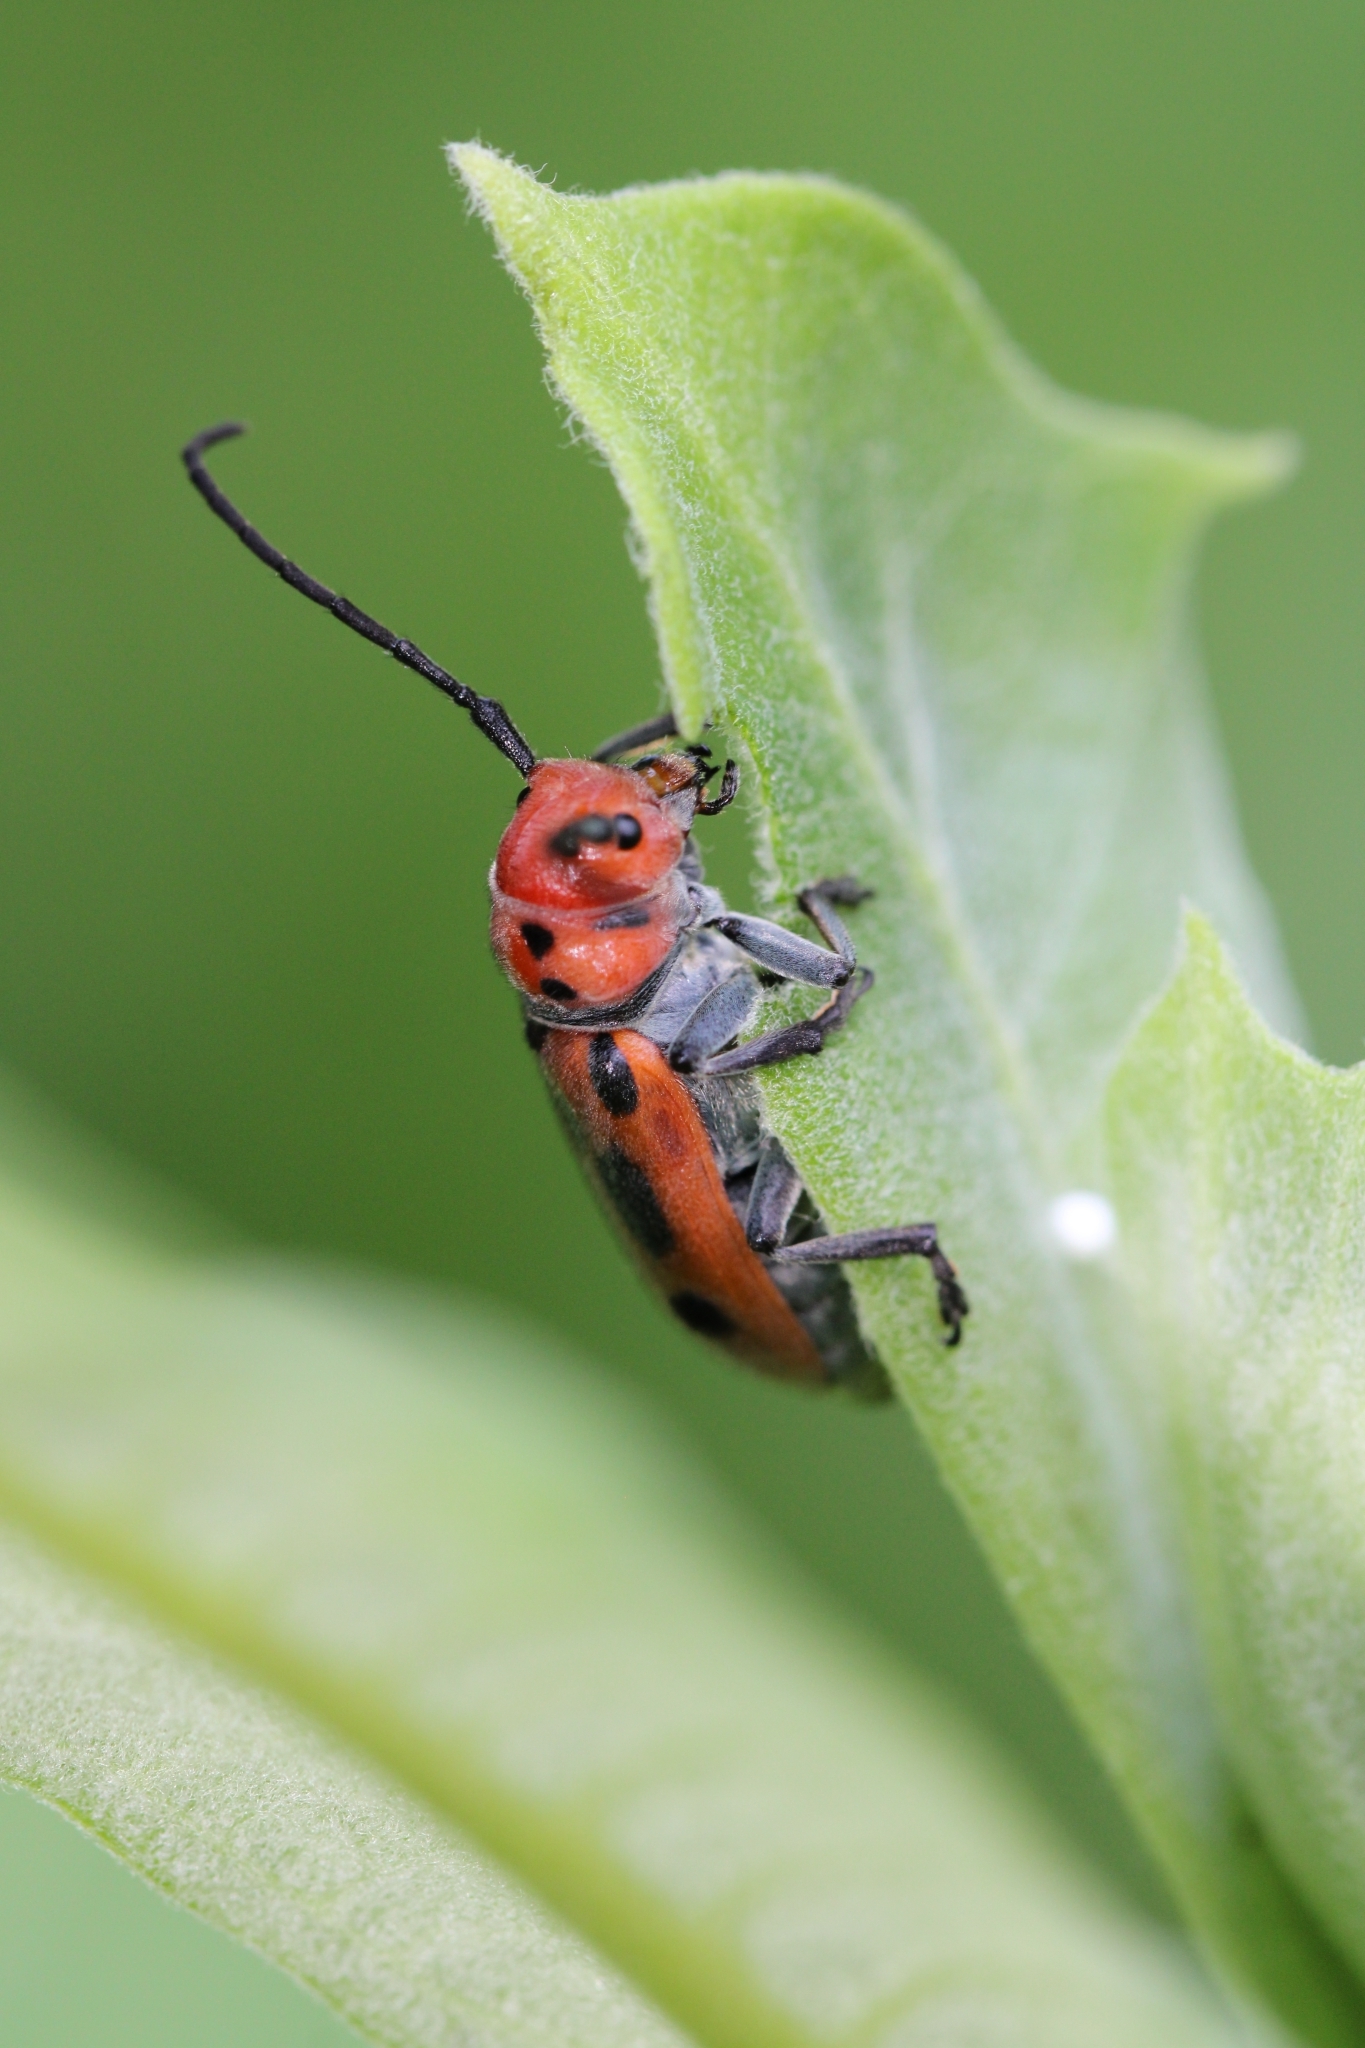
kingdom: Animalia
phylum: Arthropoda
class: Insecta
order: Coleoptera
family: Cerambycidae
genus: Tetraopes
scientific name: Tetraopes tetrophthalmus
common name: Red milkweed beetle
